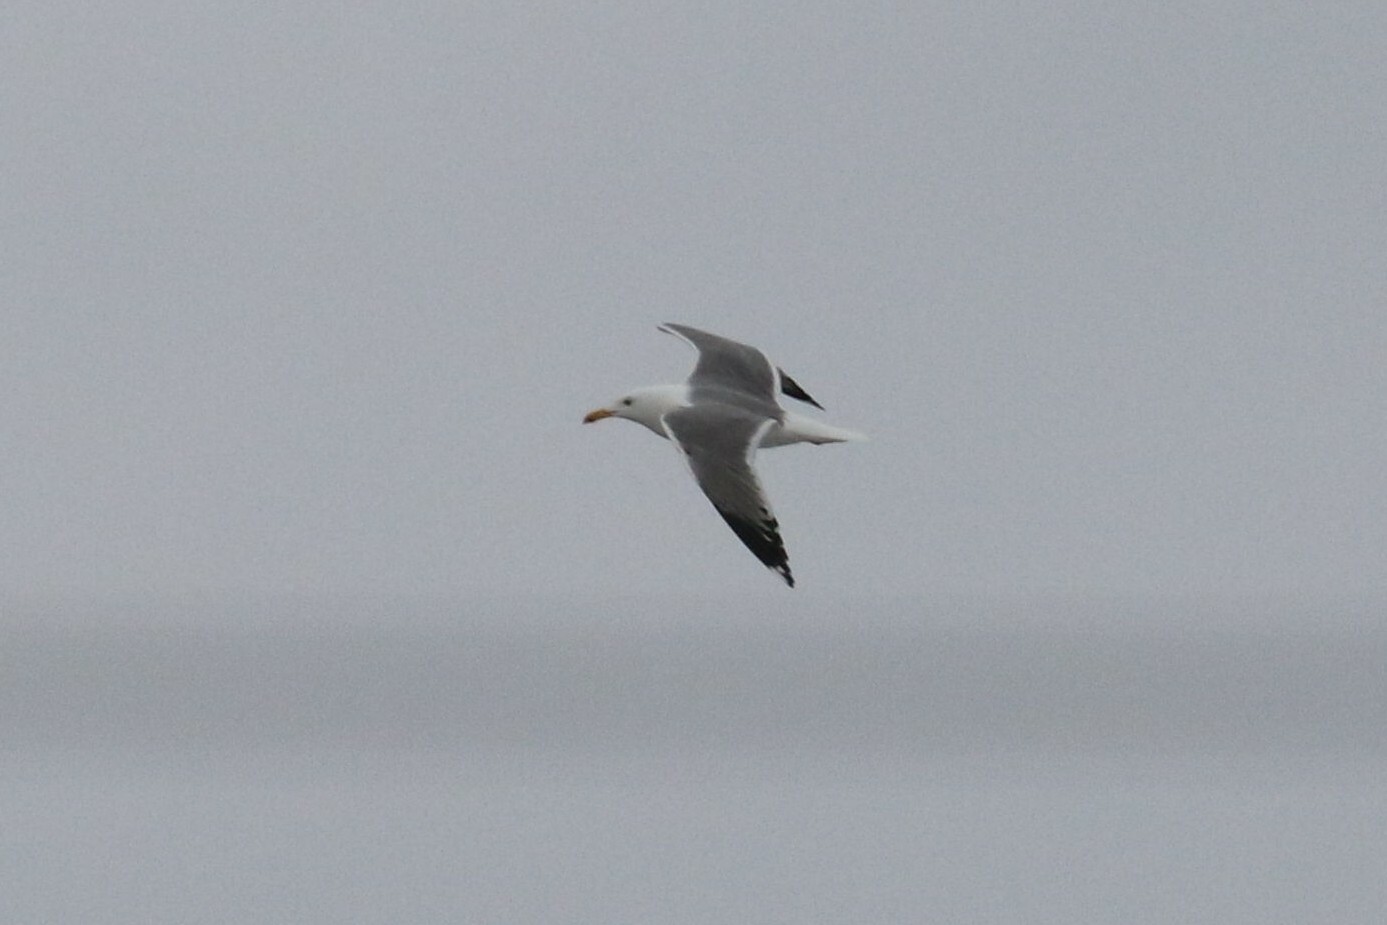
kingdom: Animalia
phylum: Chordata
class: Aves
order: Charadriiformes
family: Laridae
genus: Larus
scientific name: Larus fuscus
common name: Lesser black-backed gull
